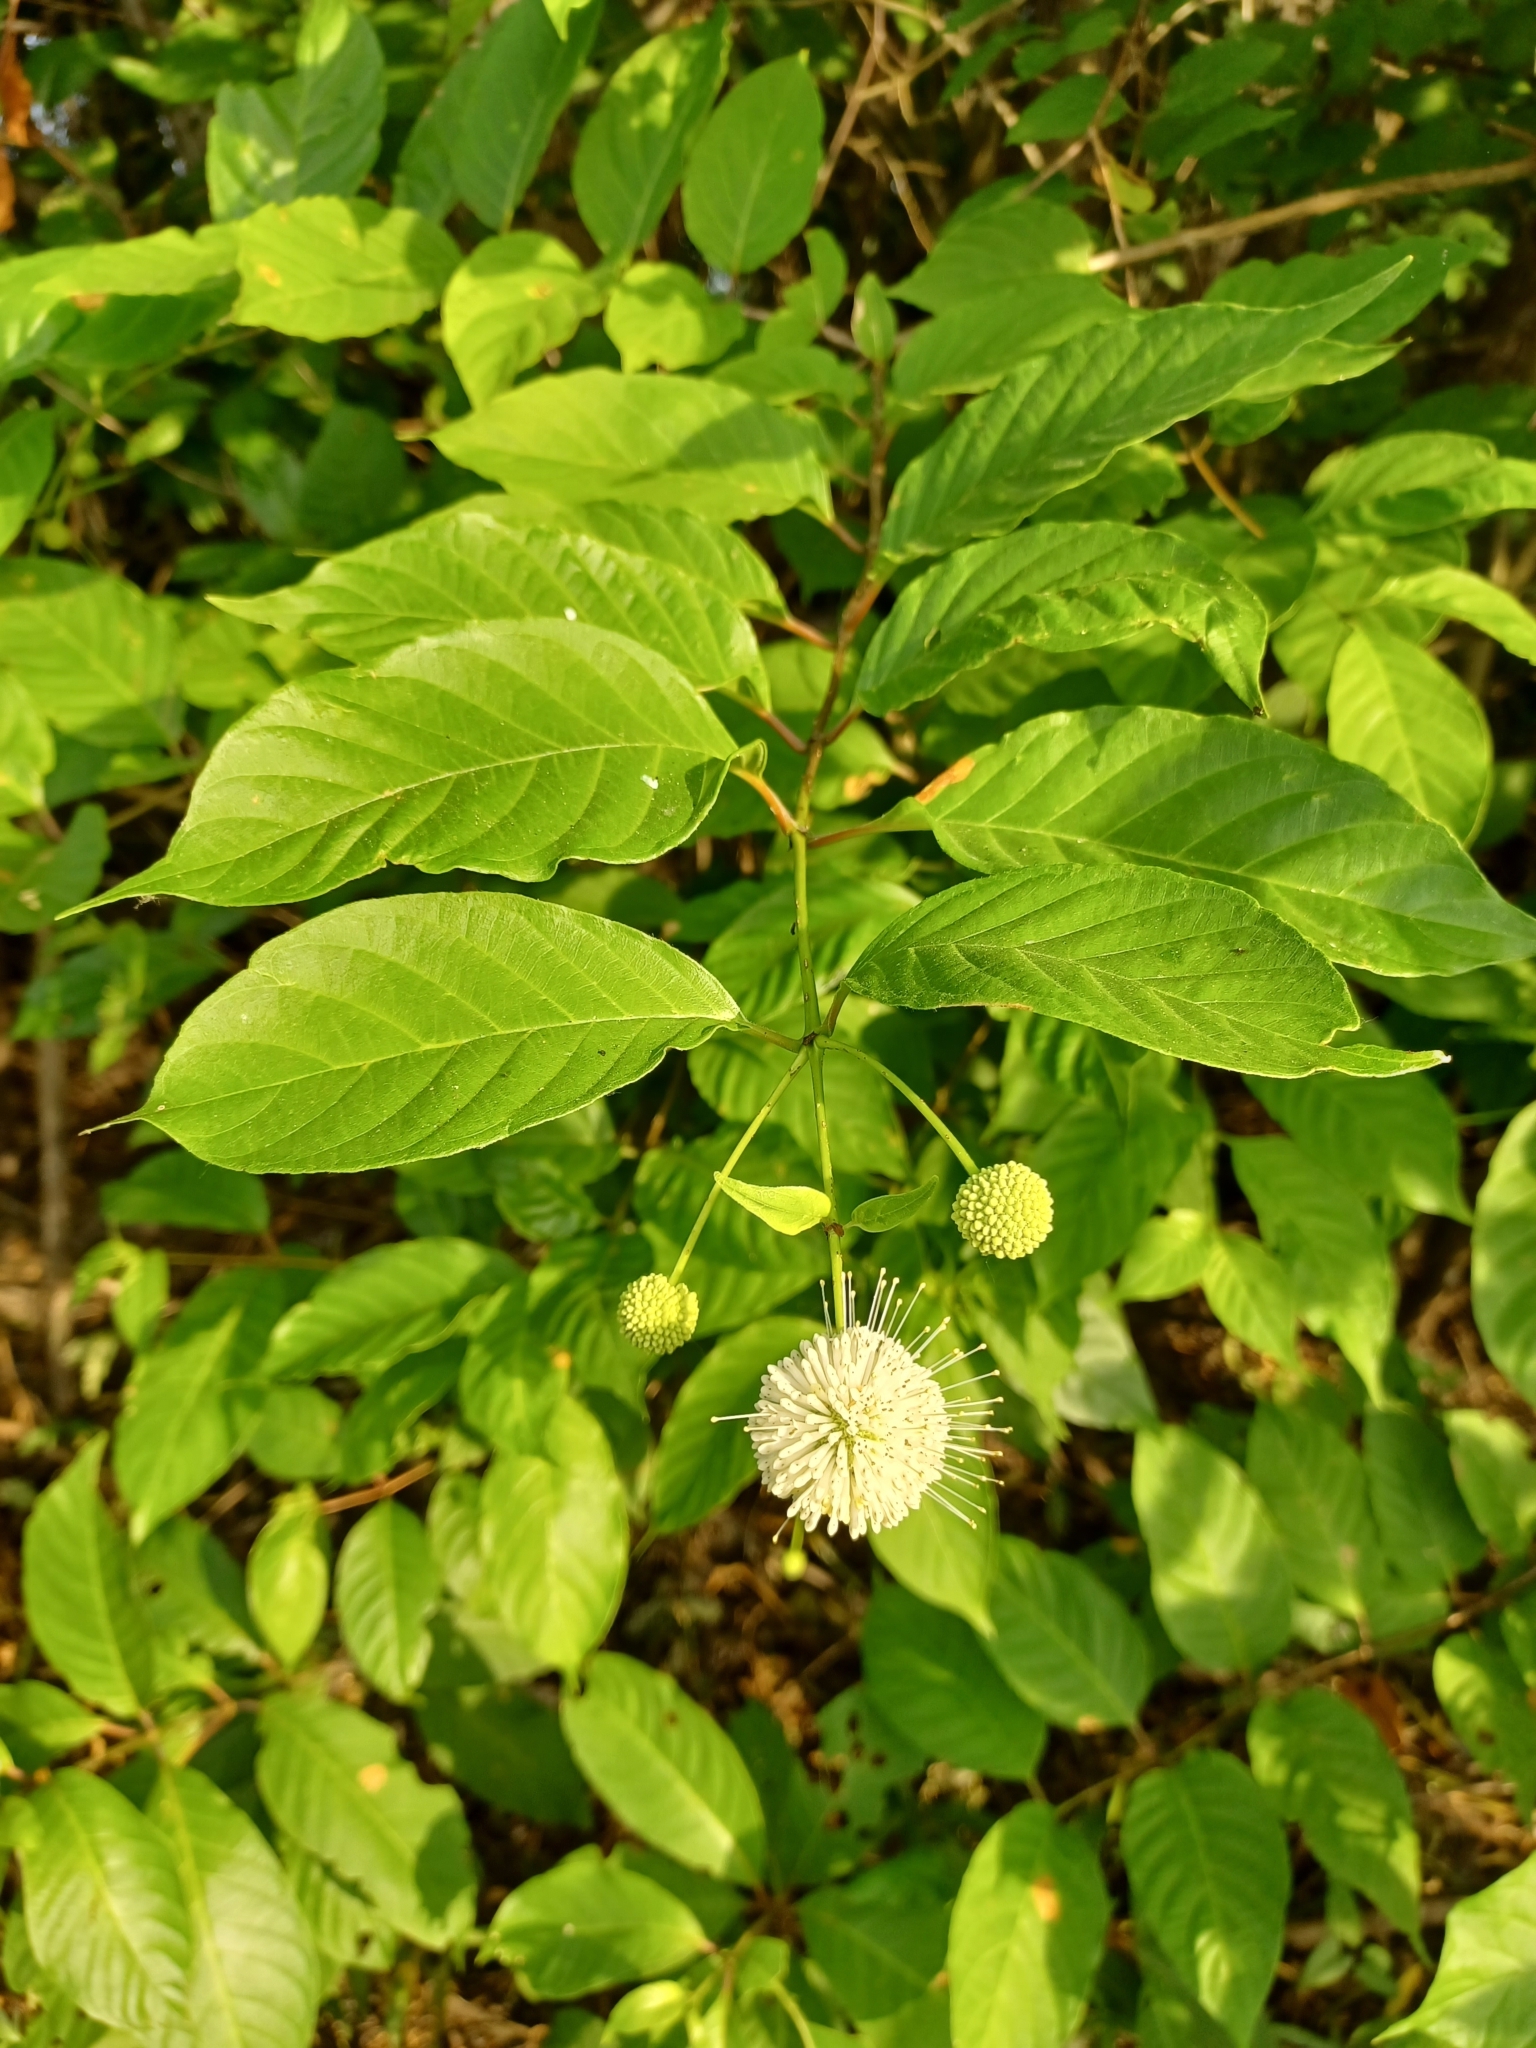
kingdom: Plantae
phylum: Tracheophyta
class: Magnoliopsida
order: Gentianales
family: Rubiaceae
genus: Cephalanthus
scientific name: Cephalanthus occidentalis
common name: Button-willow
